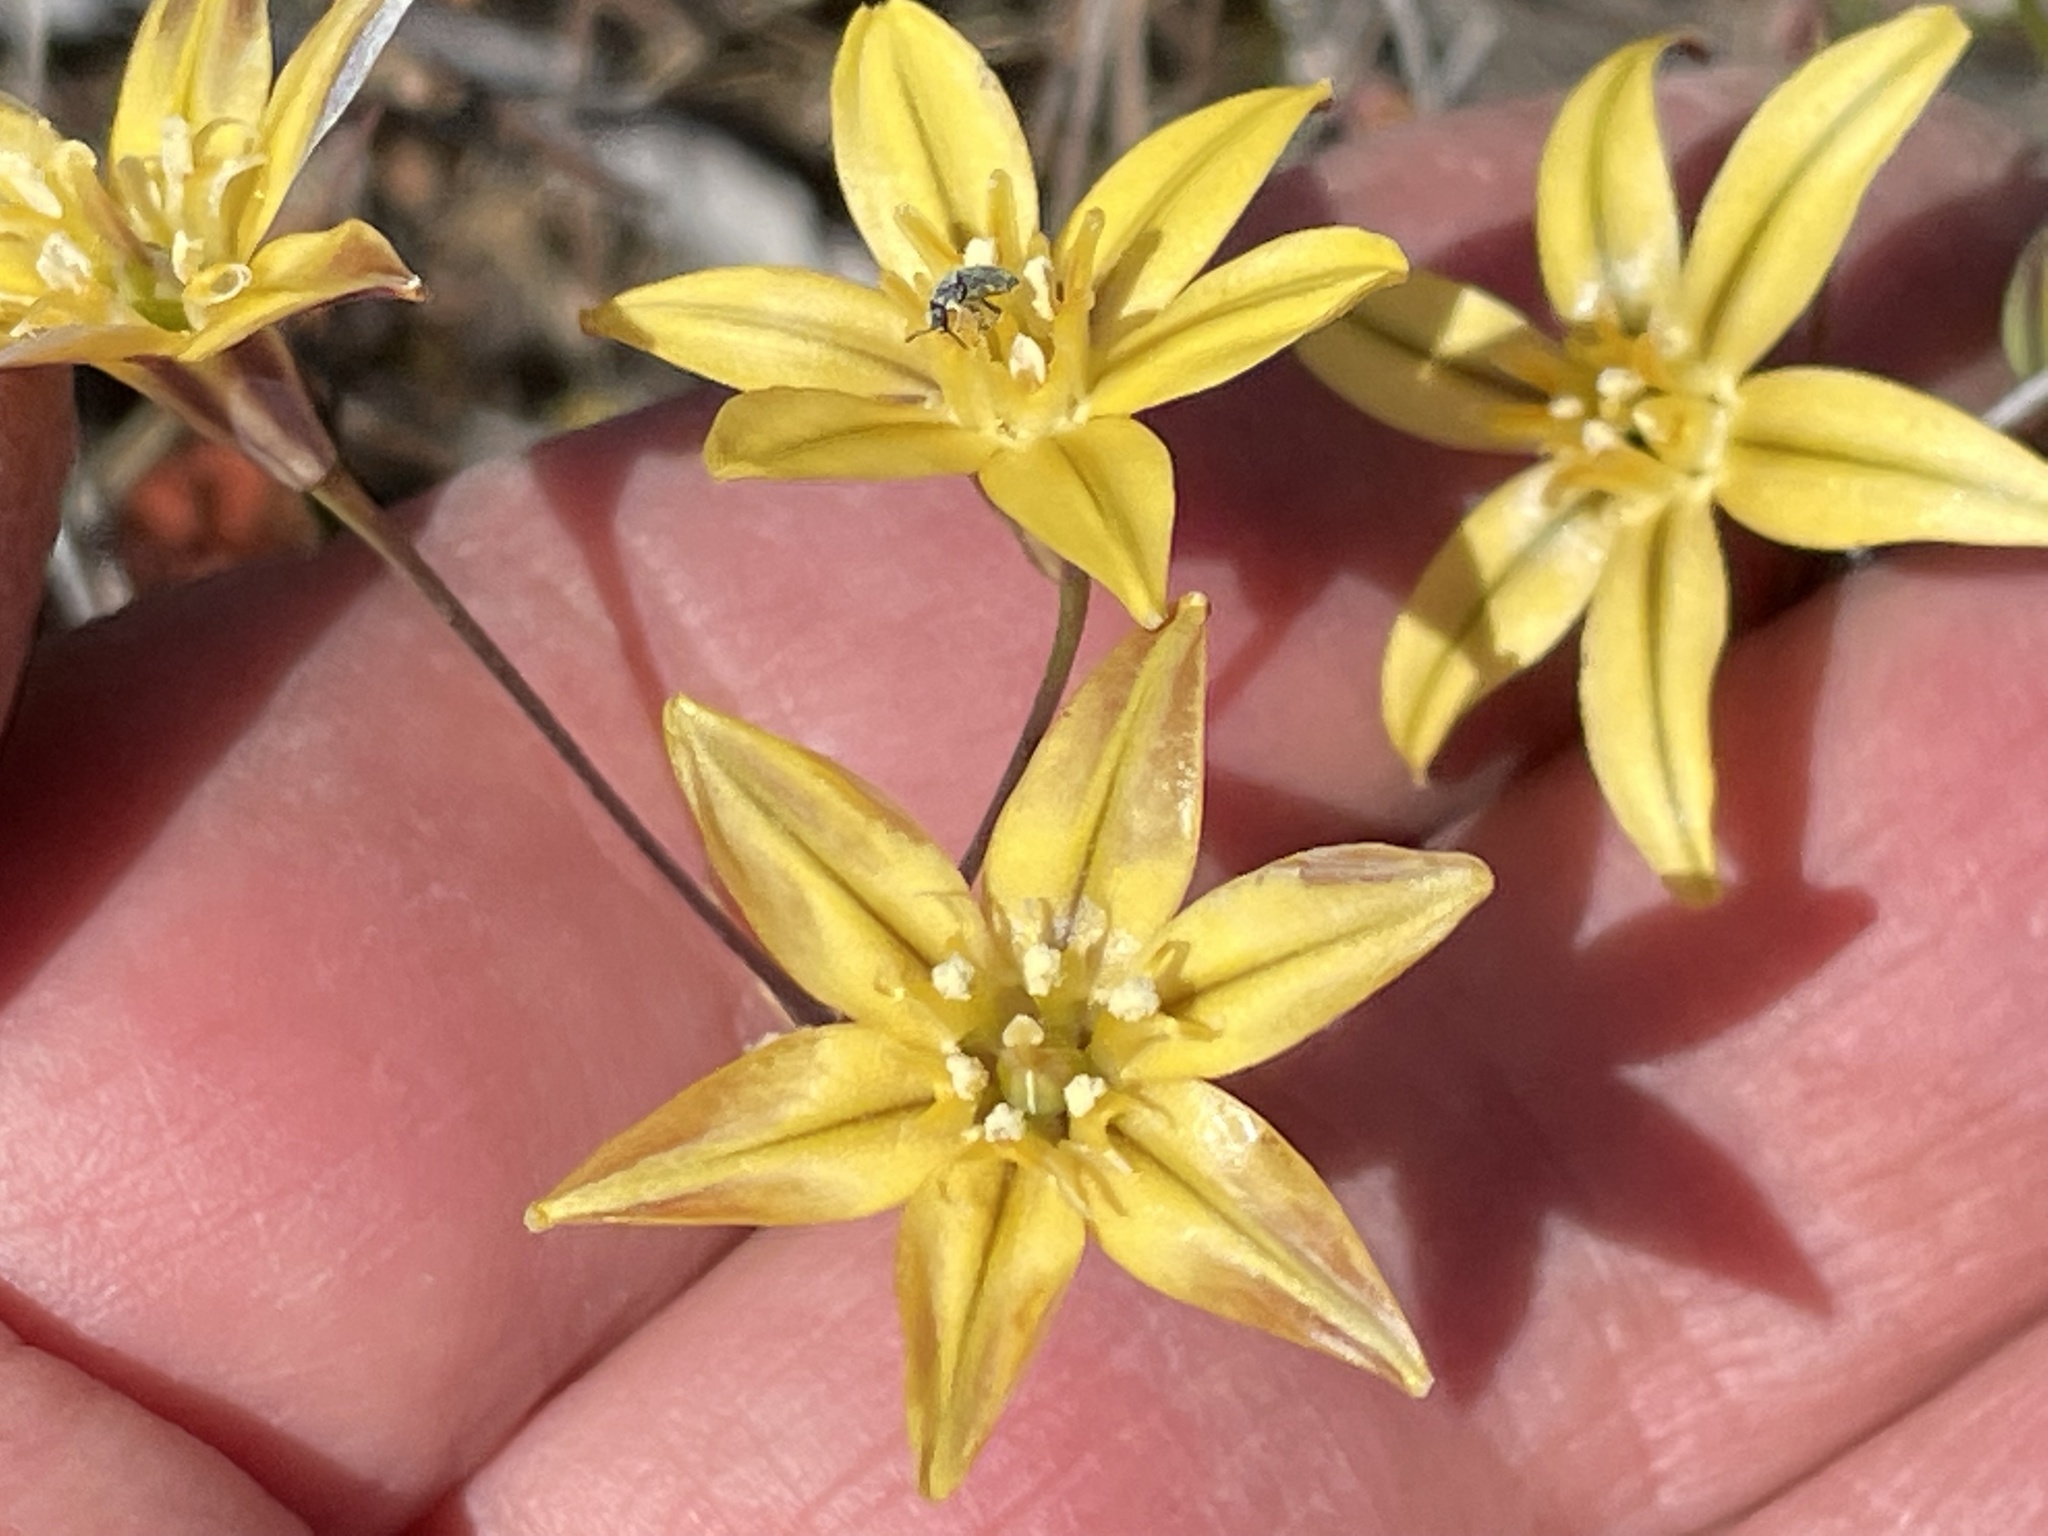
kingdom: Plantae
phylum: Tracheophyta
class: Liliopsida
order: Asparagales
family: Asparagaceae
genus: Triteleia
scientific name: Triteleia ixioides
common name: Yellow-brodiaea
